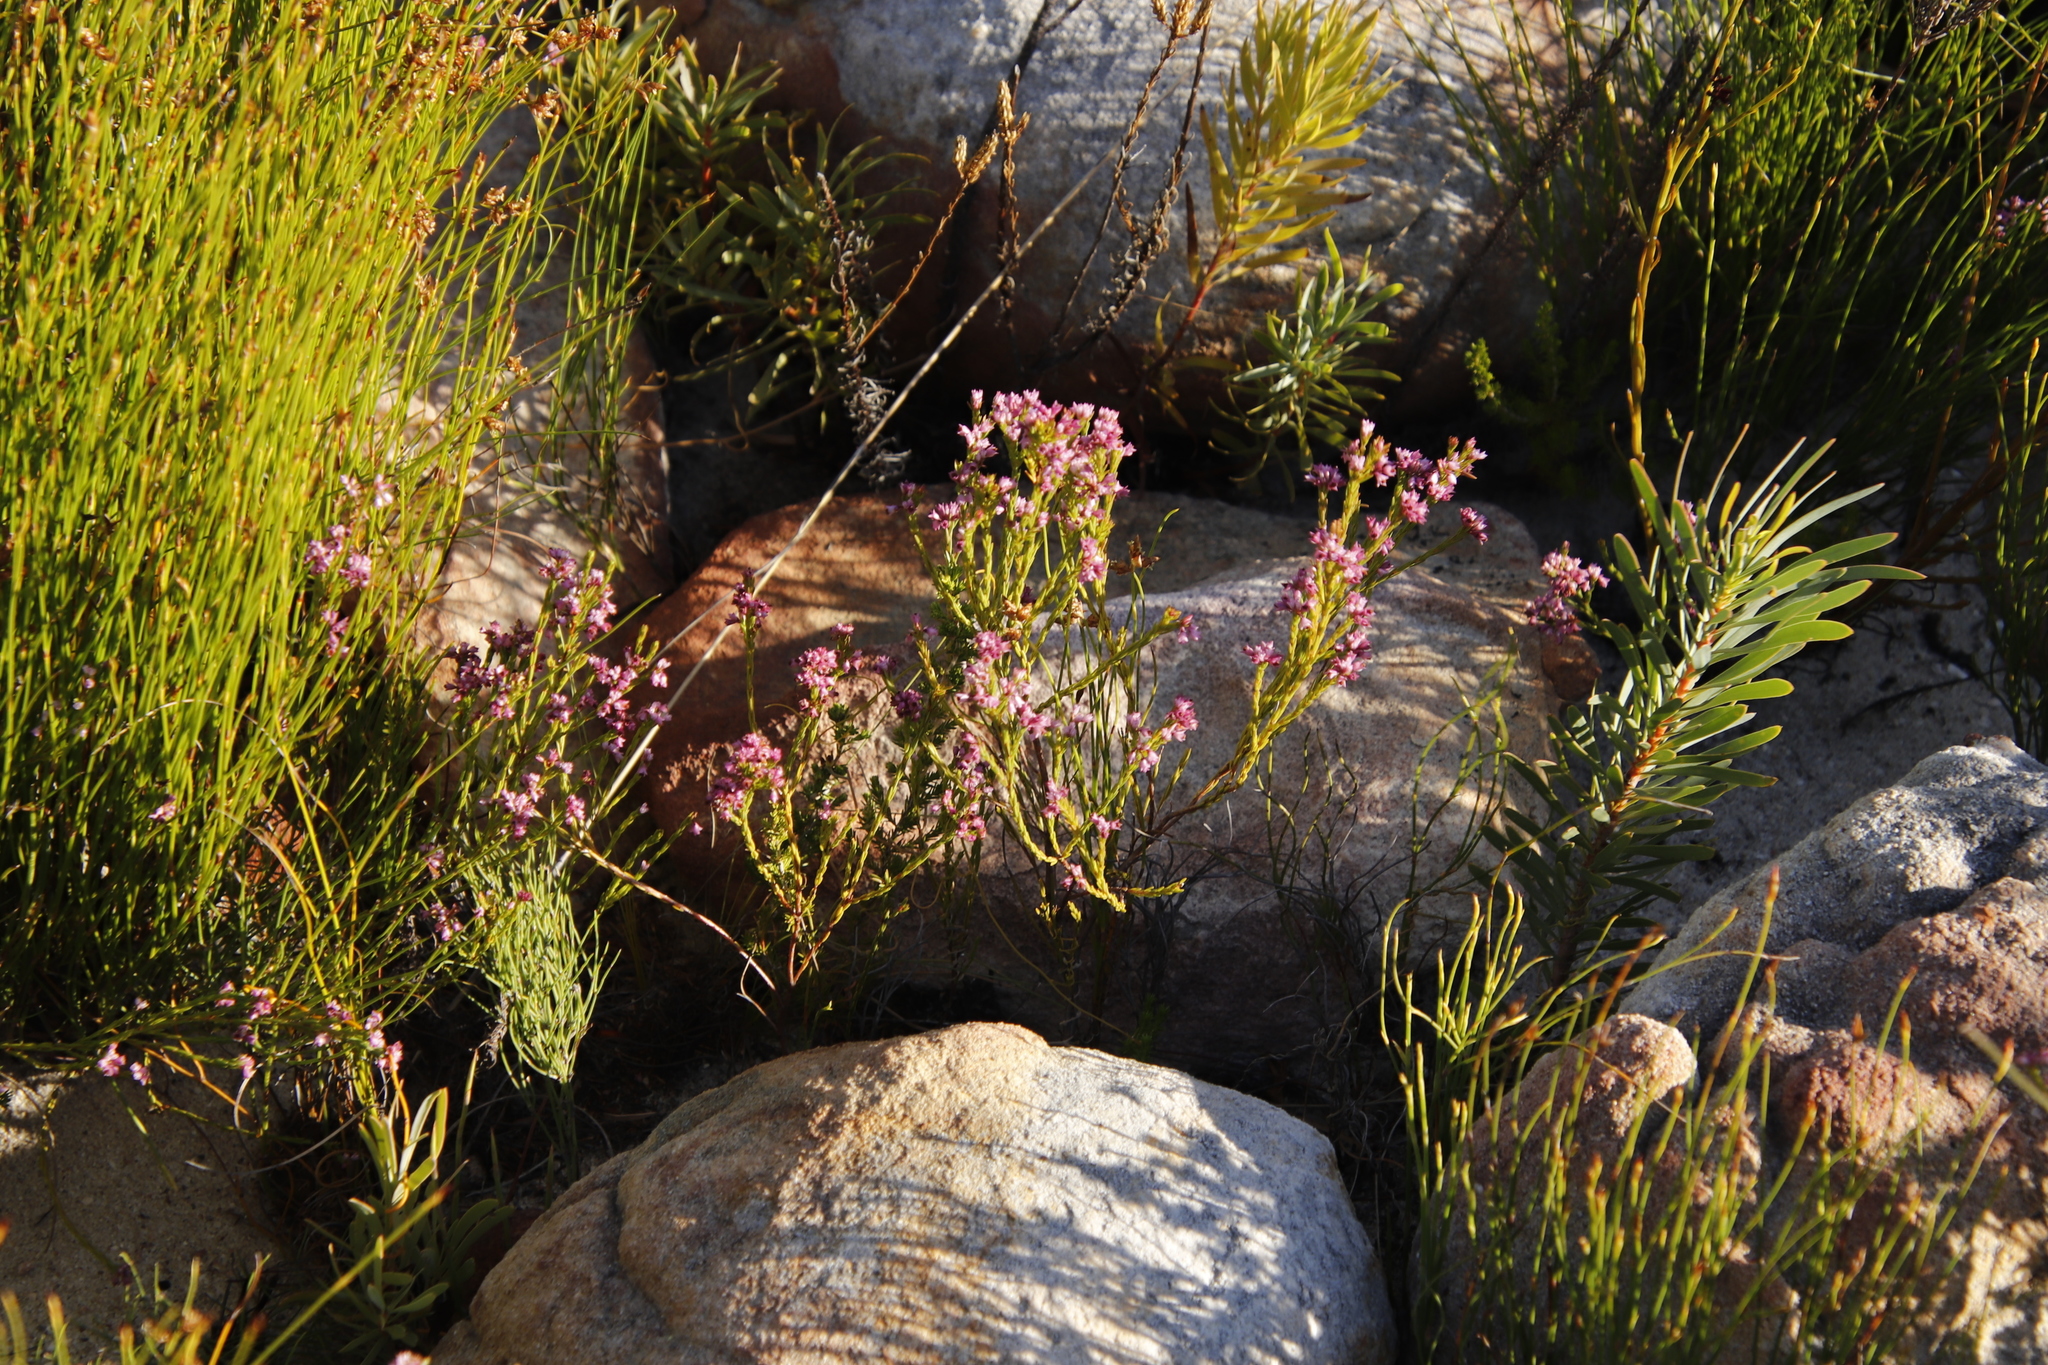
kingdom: Plantae
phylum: Tracheophyta
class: Magnoliopsida
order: Ericales
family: Ericaceae
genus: Erica
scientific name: Erica corifolia
